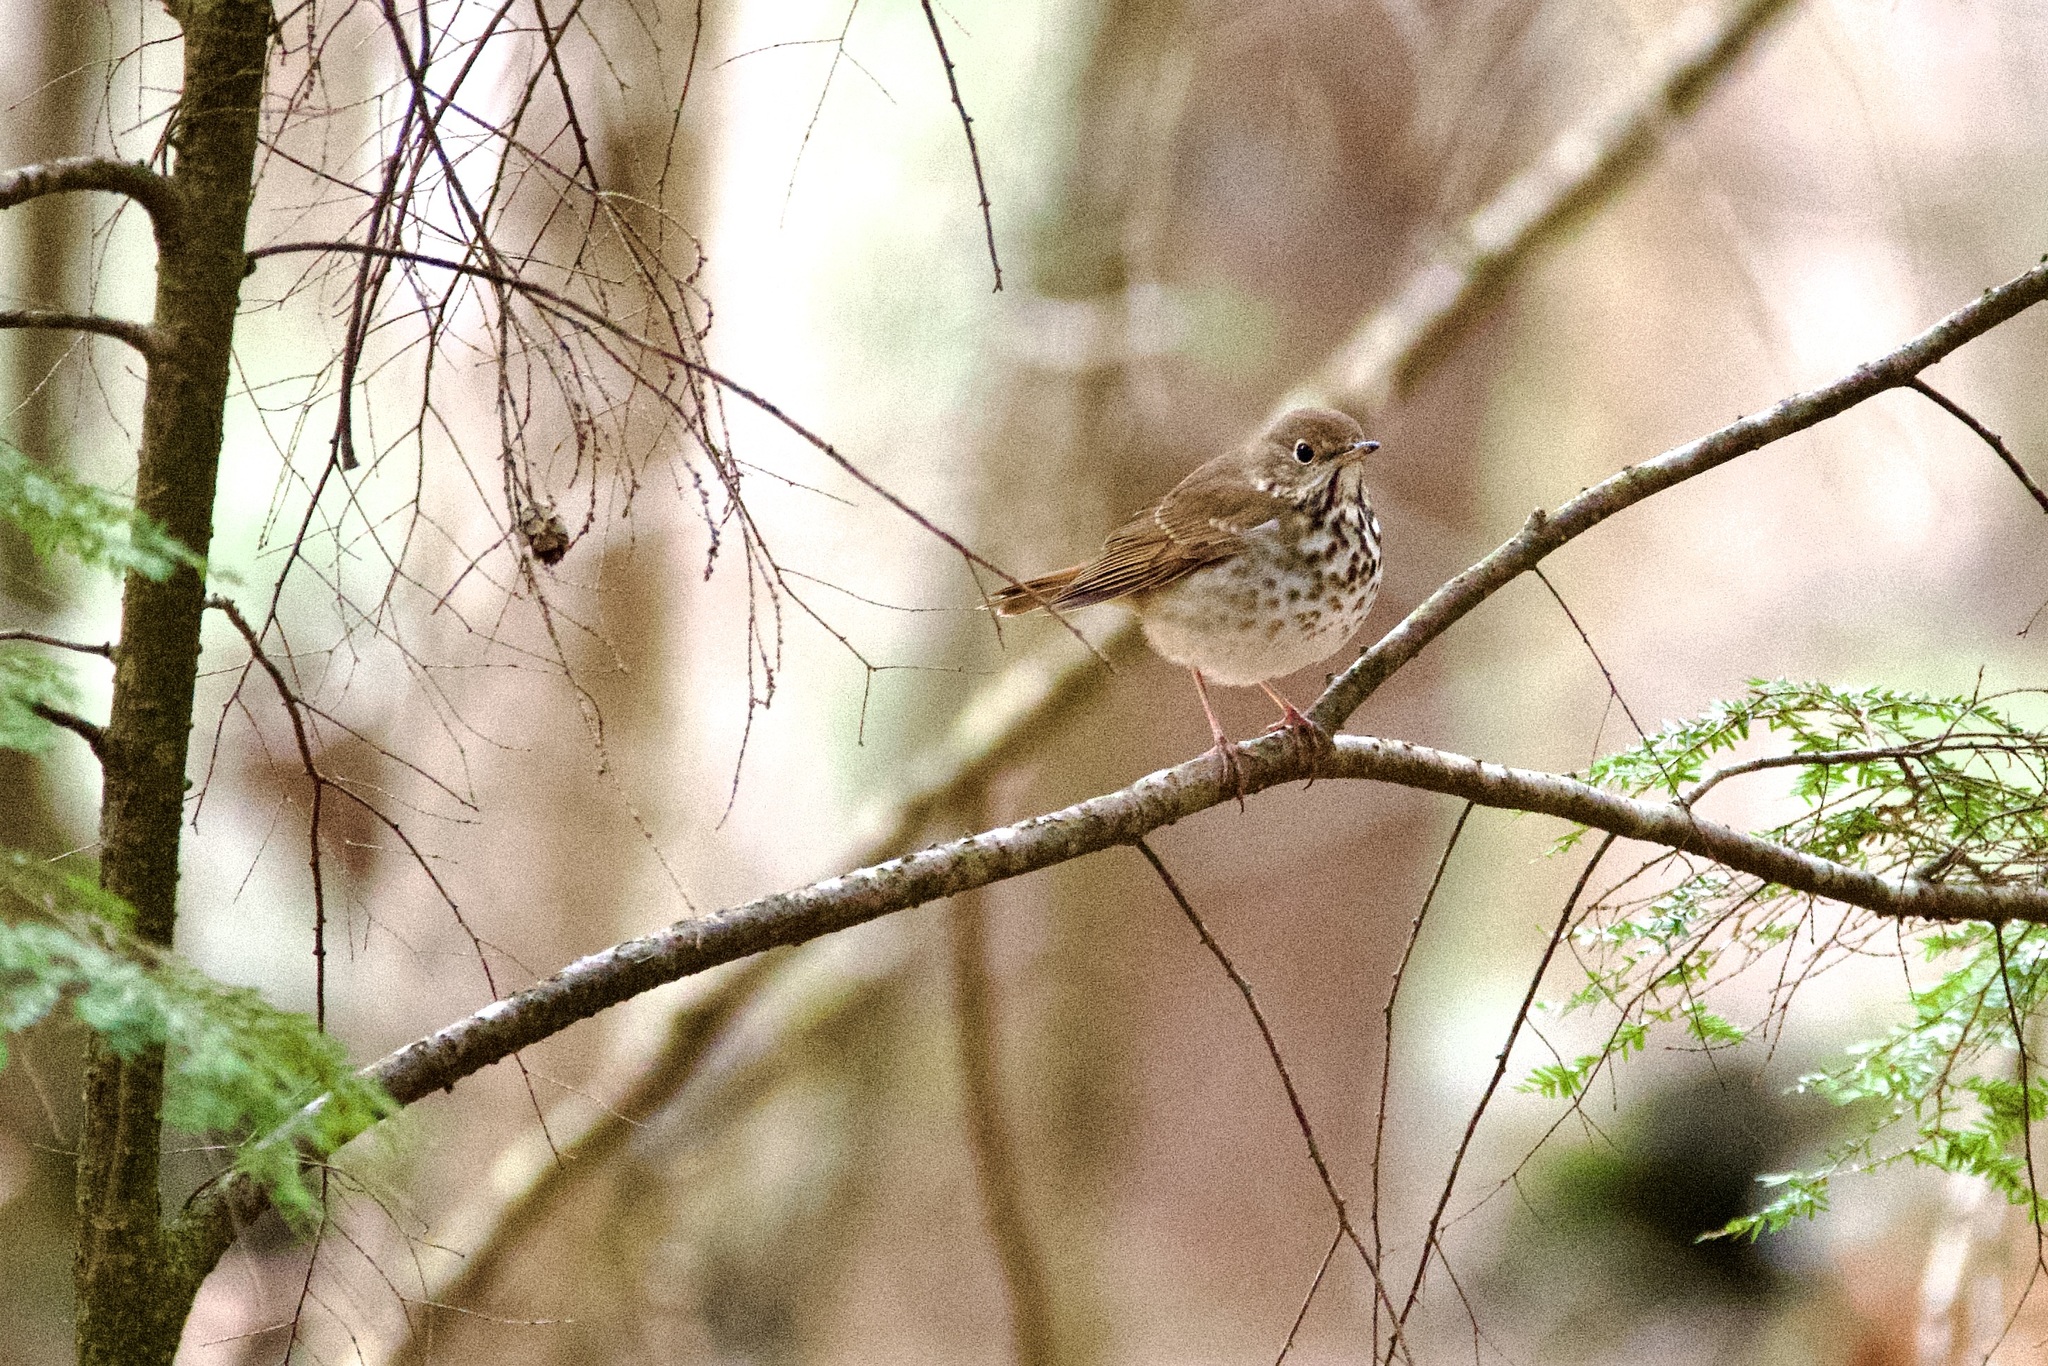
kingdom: Animalia
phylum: Chordata
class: Aves
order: Passeriformes
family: Turdidae
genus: Catharus
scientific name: Catharus guttatus
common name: Hermit thrush
